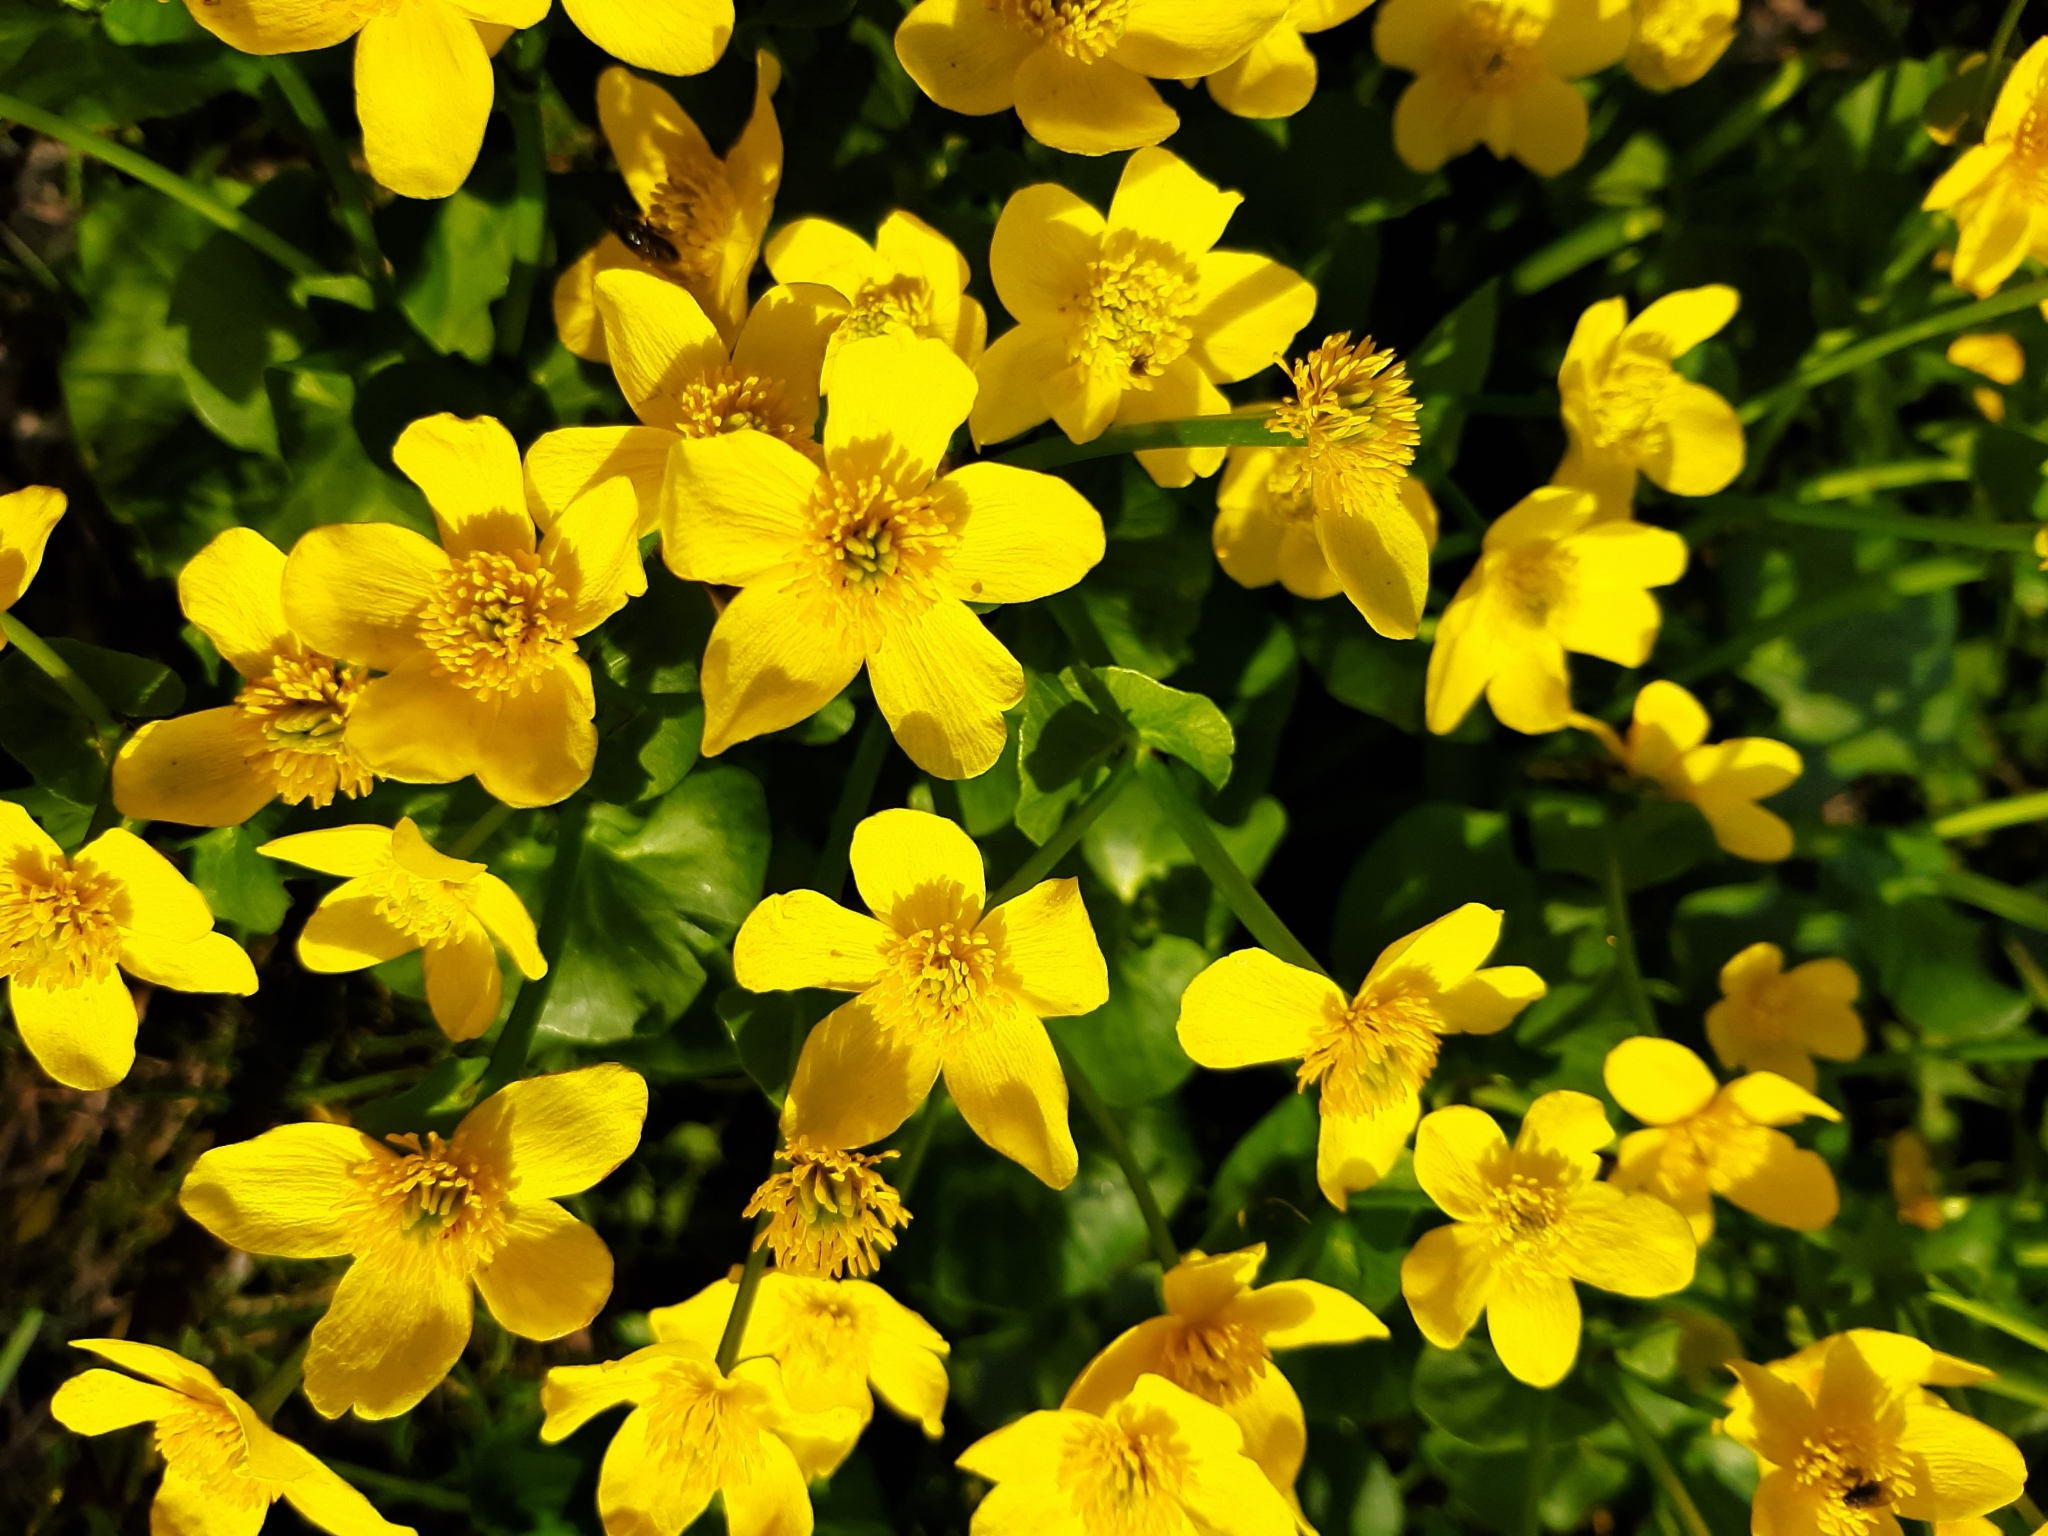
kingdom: Plantae
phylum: Tracheophyta
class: Magnoliopsida
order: Ranunculales
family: Ranunculaceae
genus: Caltha
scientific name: Caltha palustris
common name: Marsh marigold
